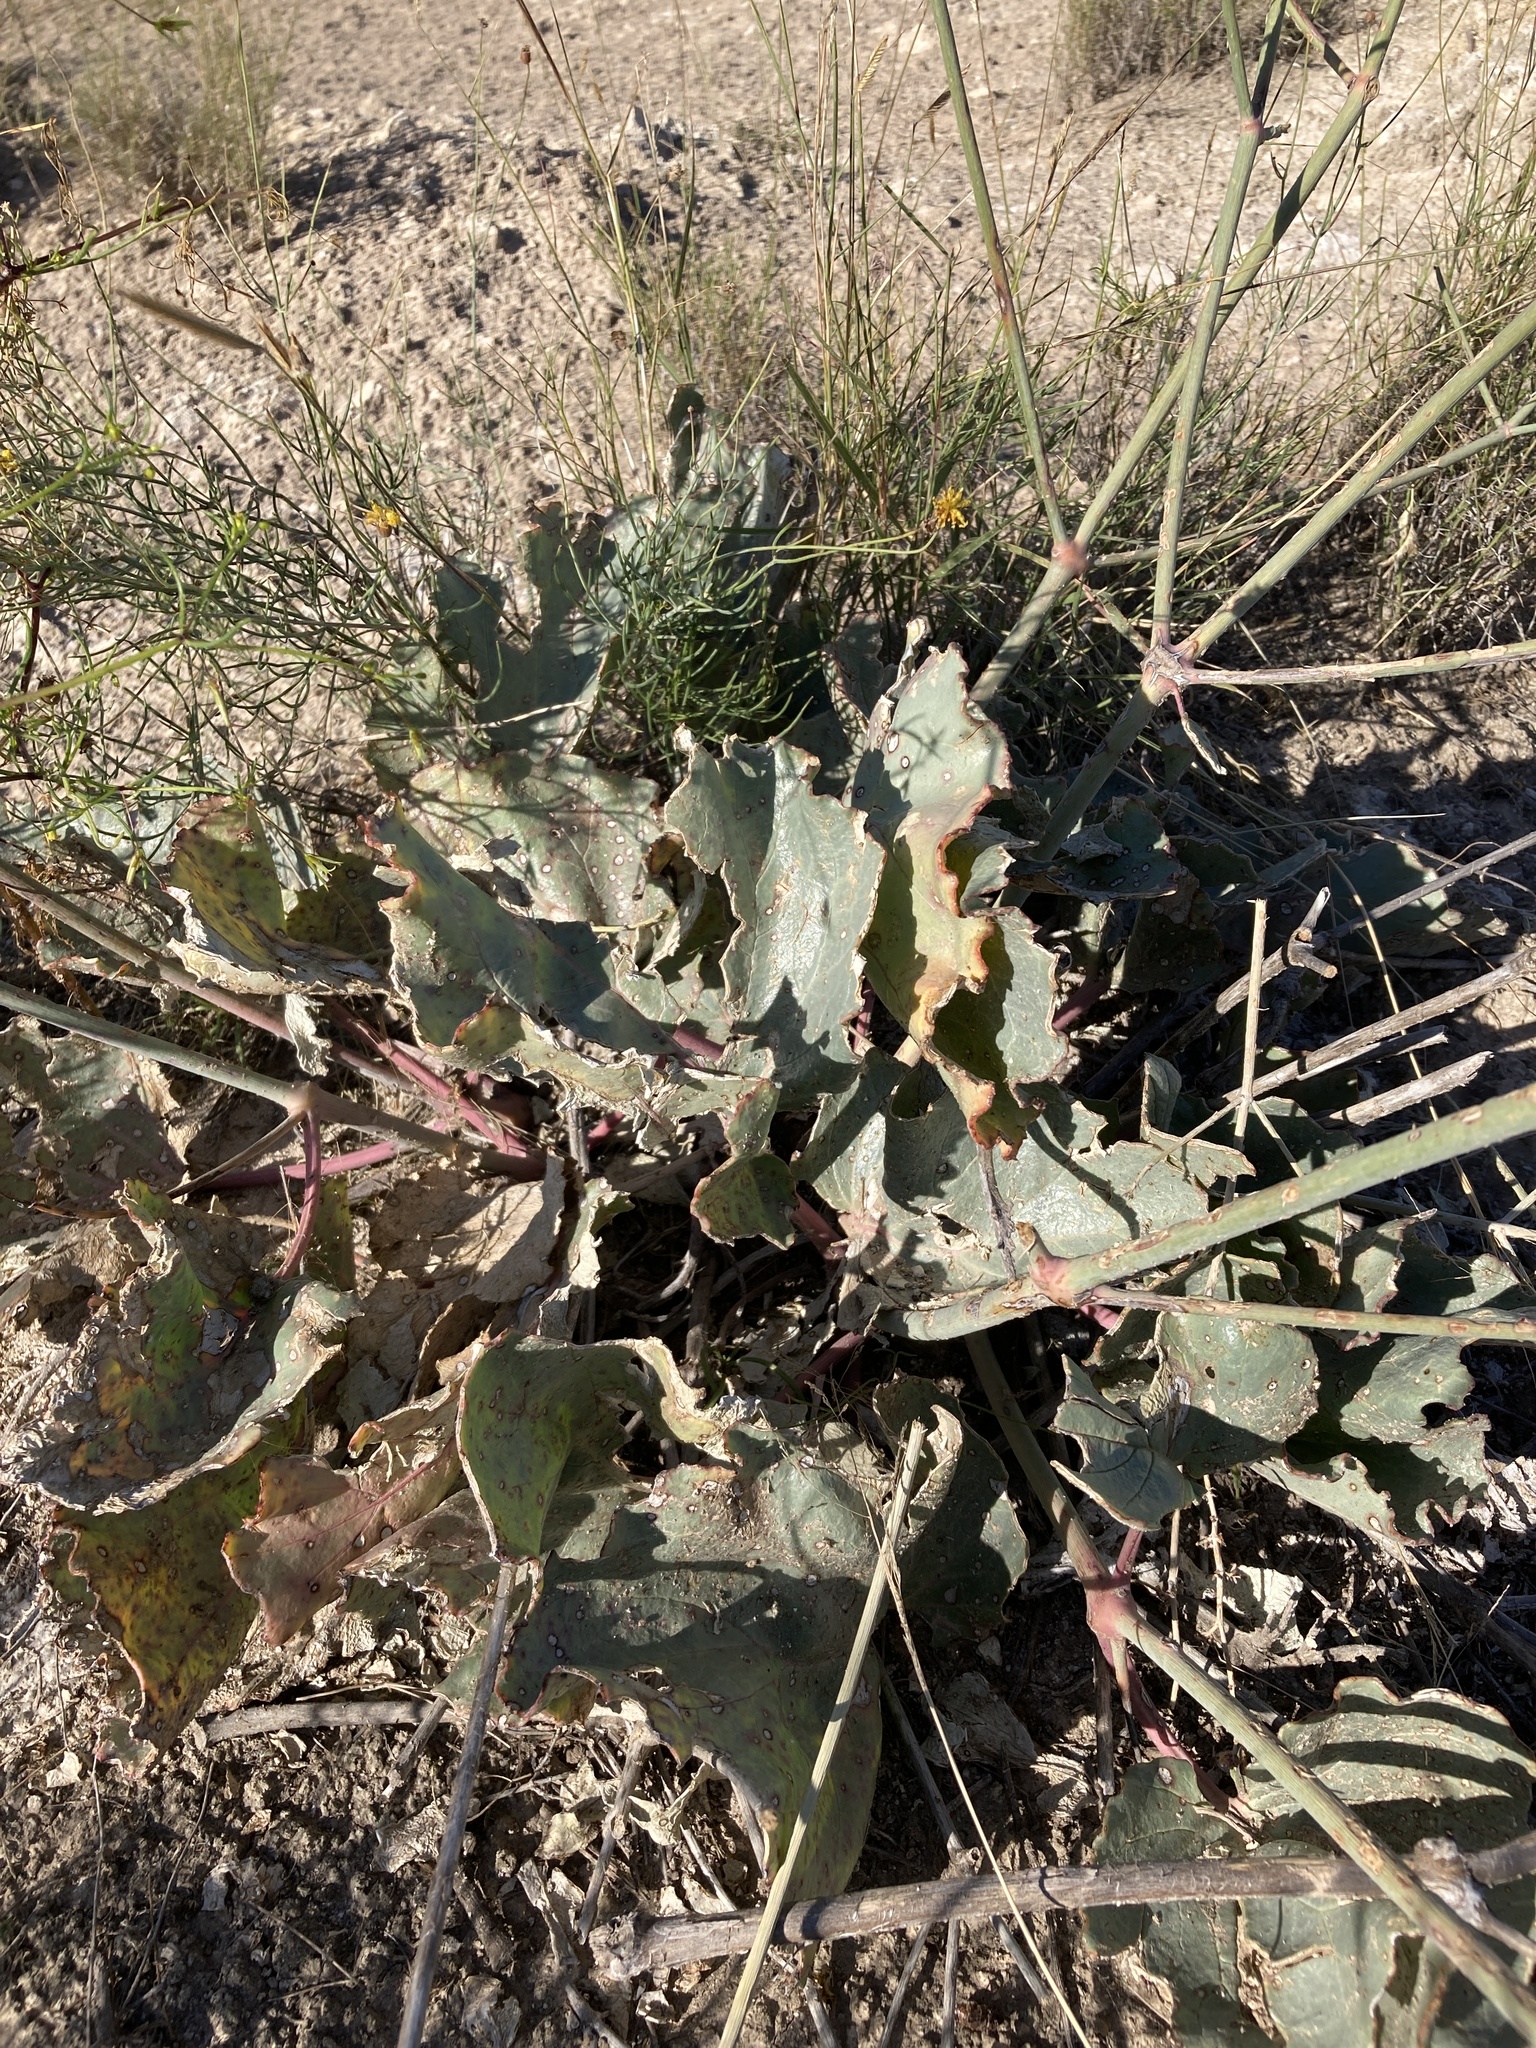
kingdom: Plantae
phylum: Tracheophyta
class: Magnoliopsida
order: Caryophyllales
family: Nyctaginaceae
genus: Anulocaulis
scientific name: Anulocaulis leiosolenus
